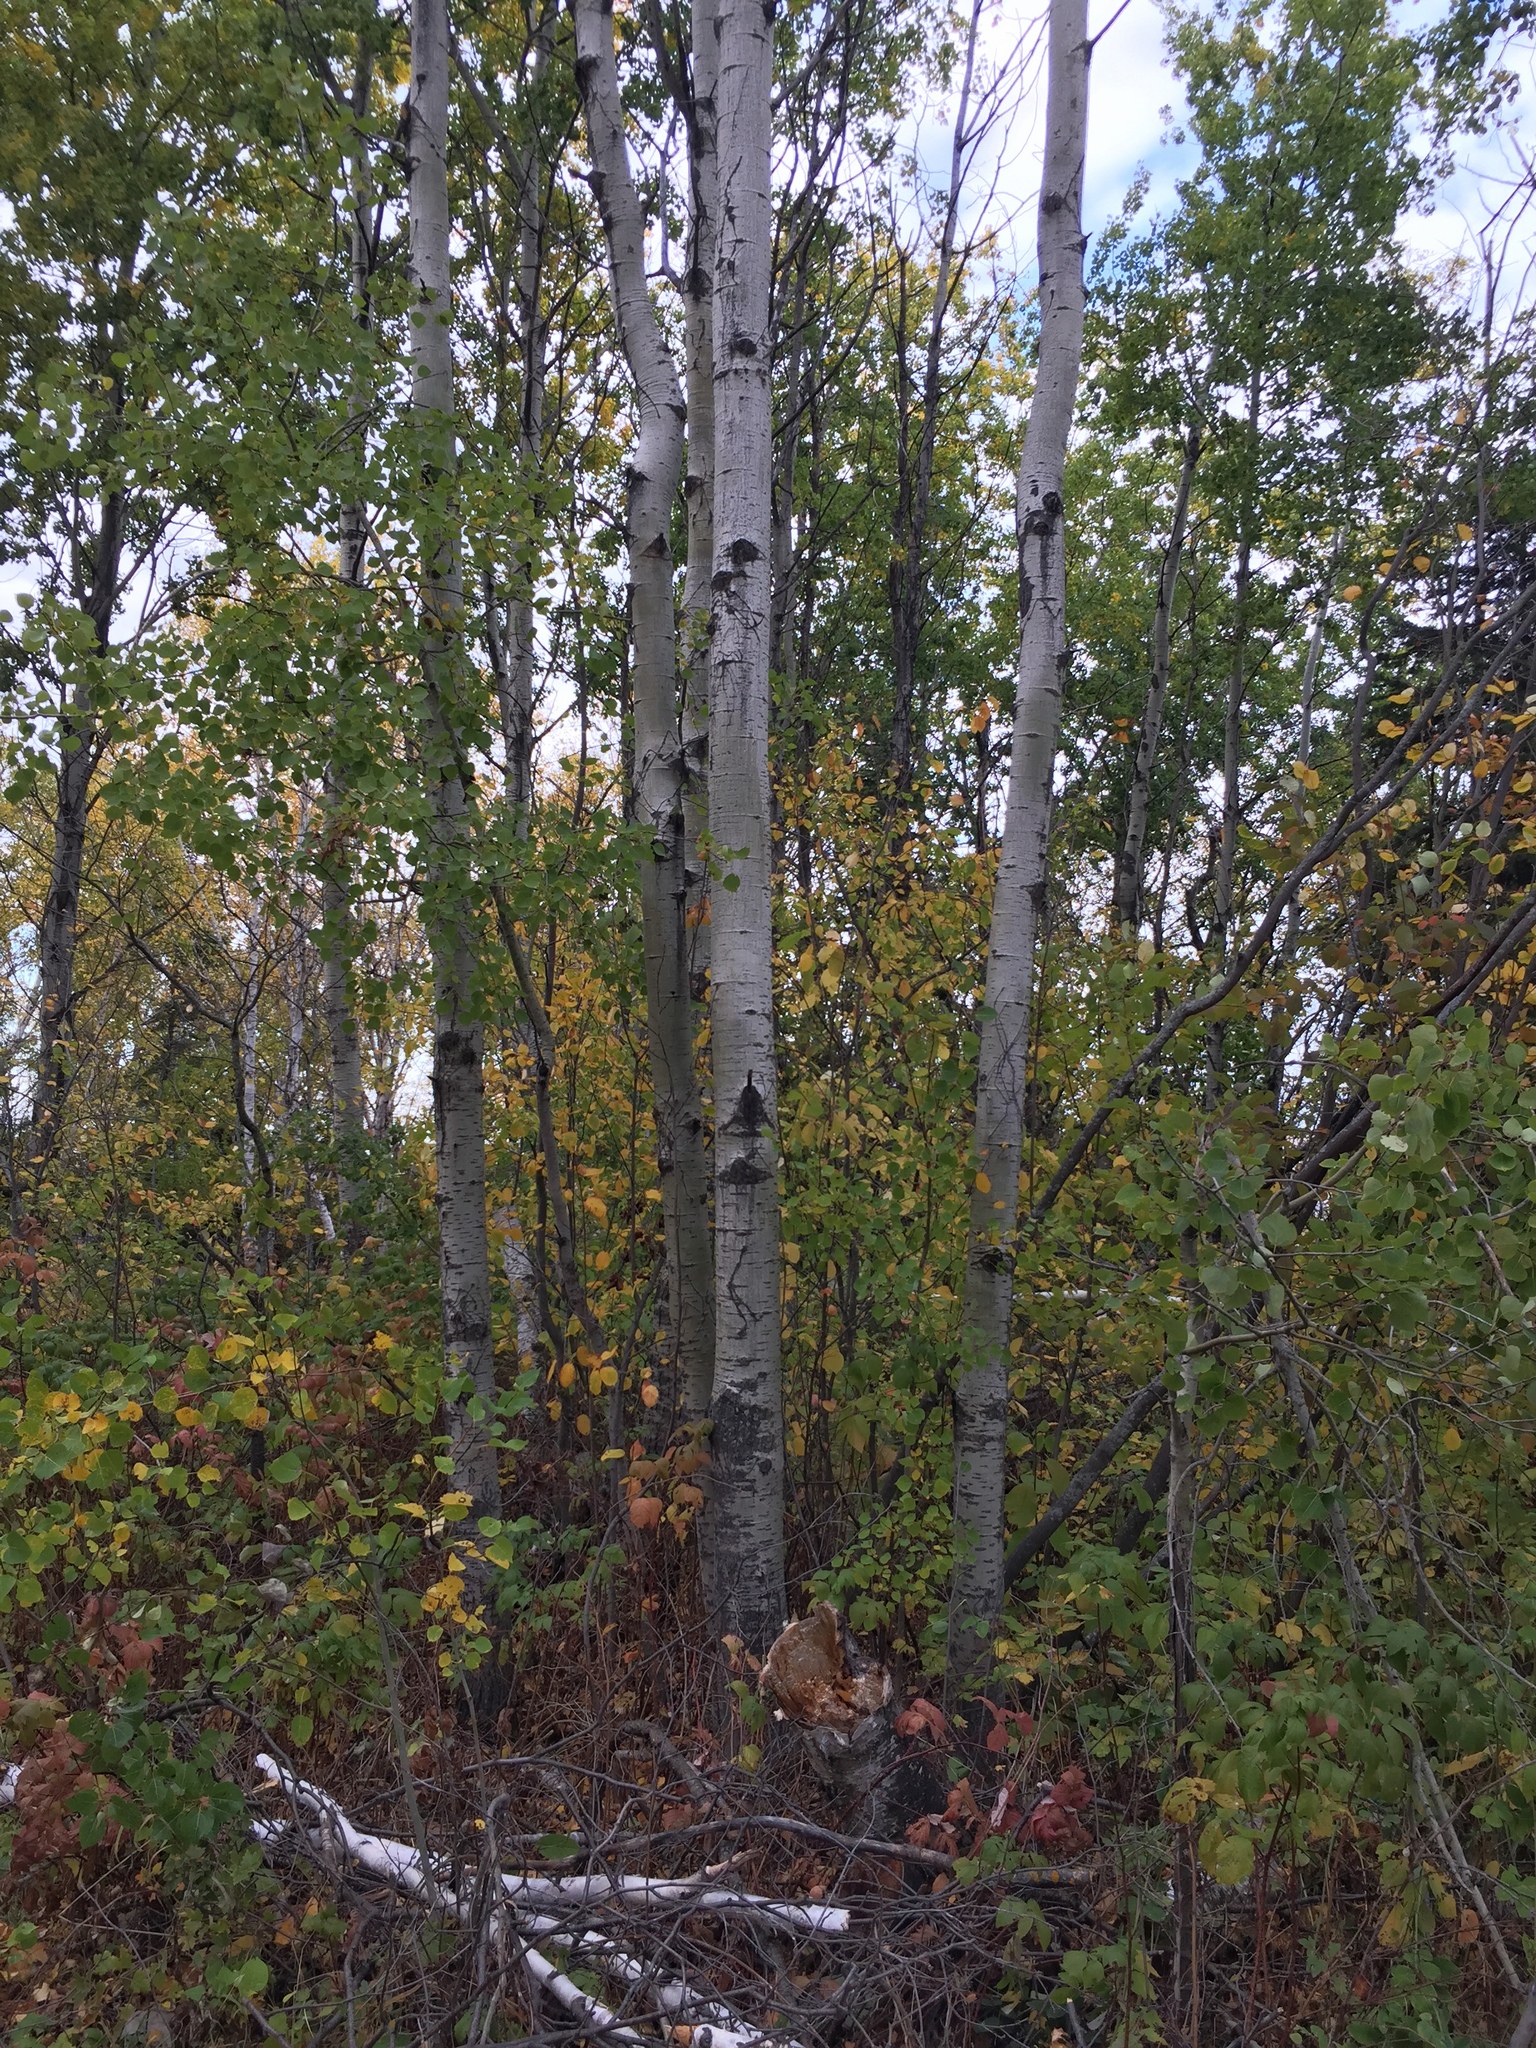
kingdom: Plantae
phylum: Tracheophyta
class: Magnoliopsida
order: Malpighiales
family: Salicaceae
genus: Populus
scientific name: Populus tremuloides
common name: Quaking aspen
